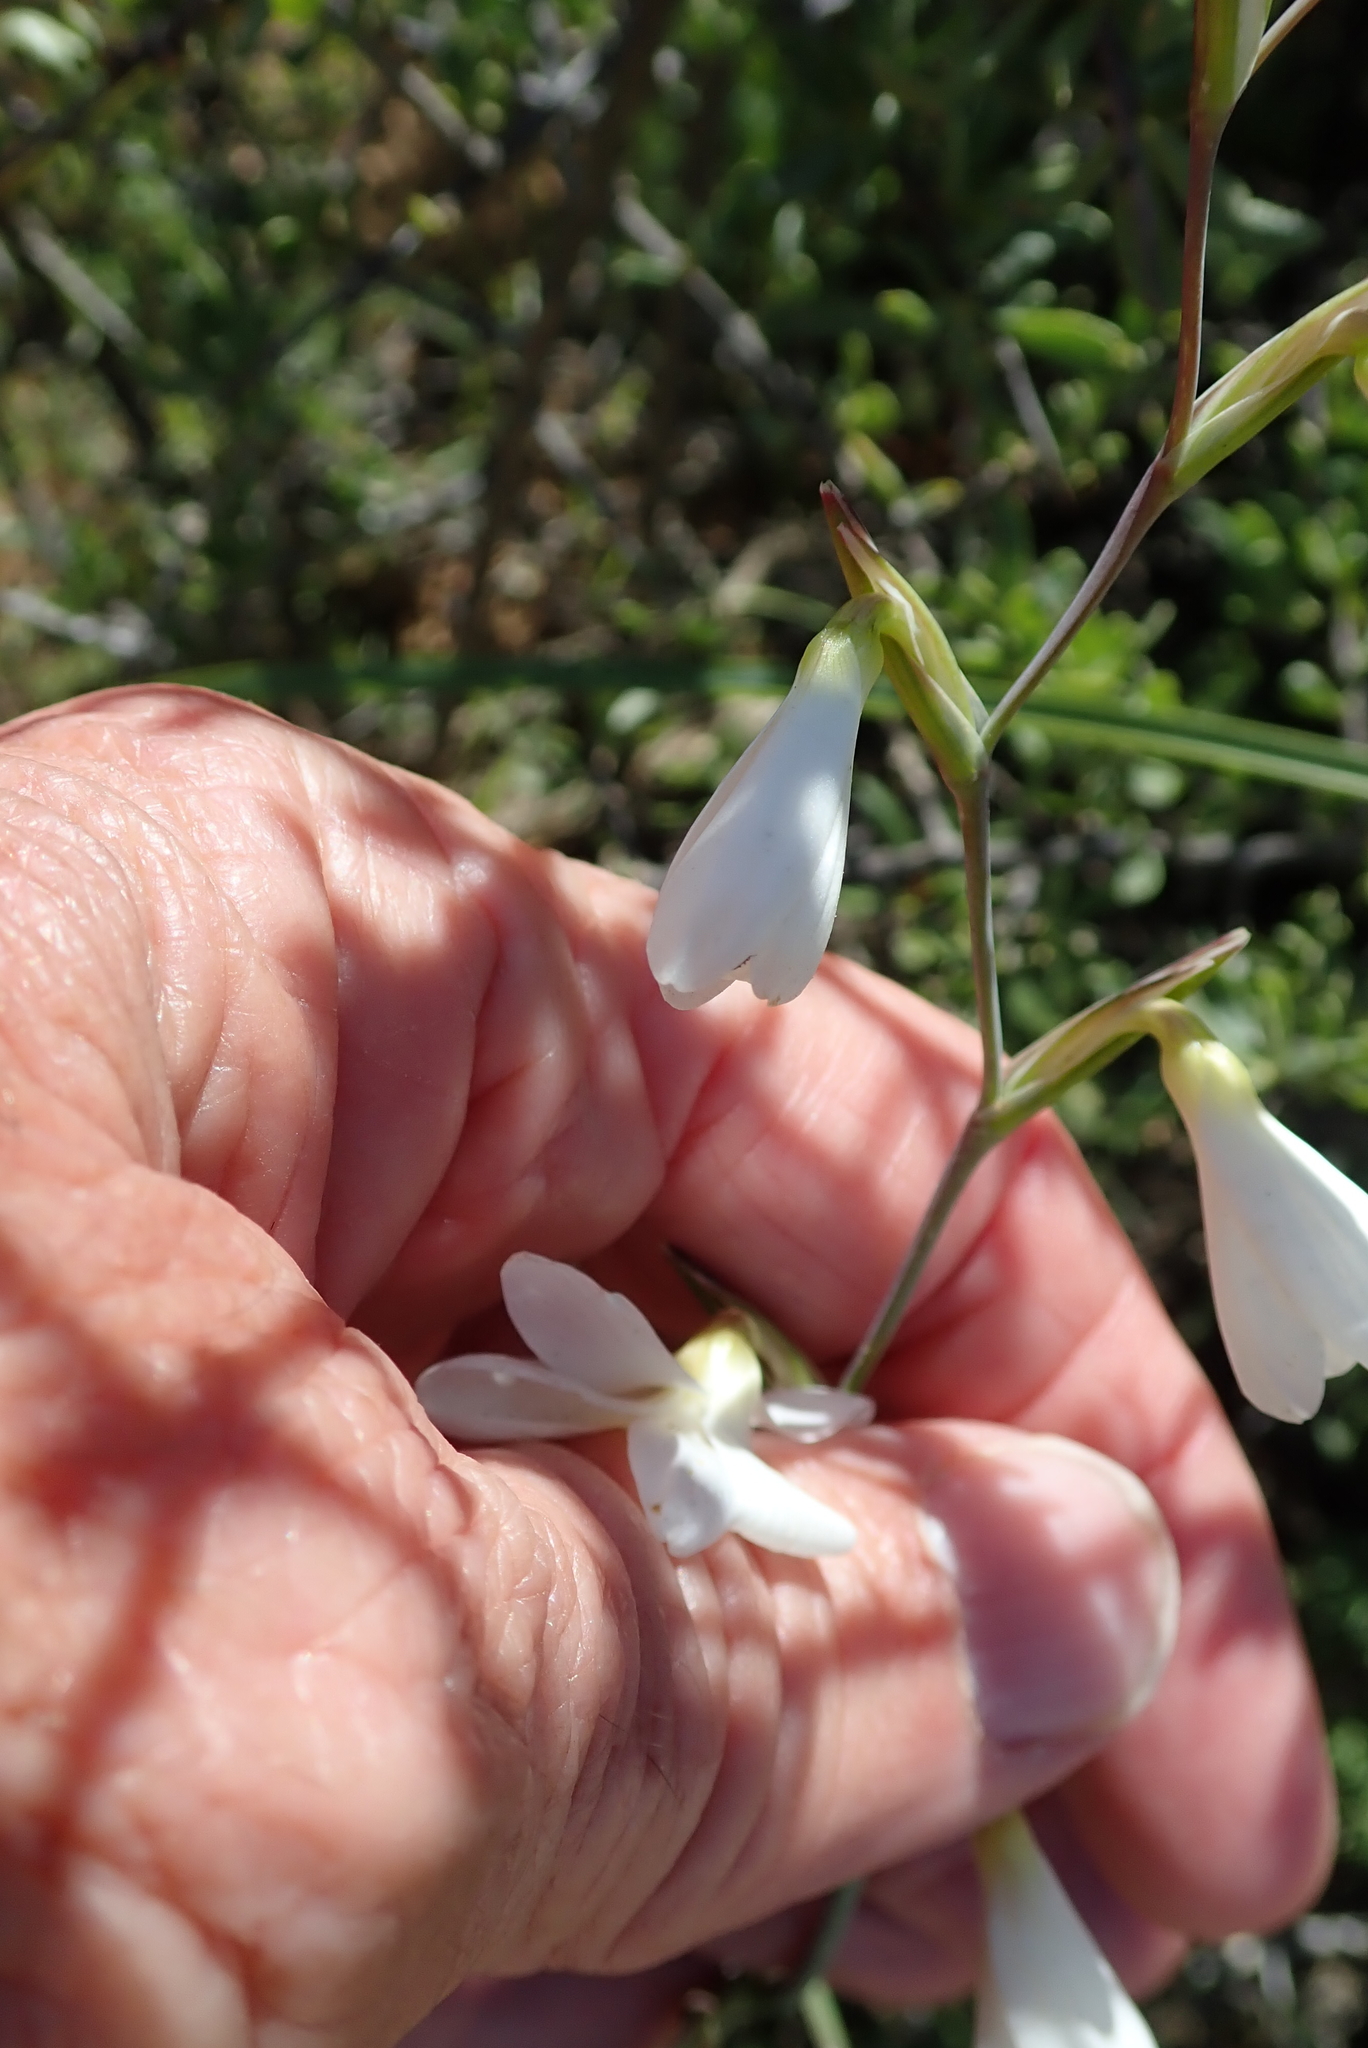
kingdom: Plantae
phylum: Tracheophyta
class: Liliopsida
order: Asparagales
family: Iridaceae
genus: Hesperantha
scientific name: Hesperantha bachmannii
